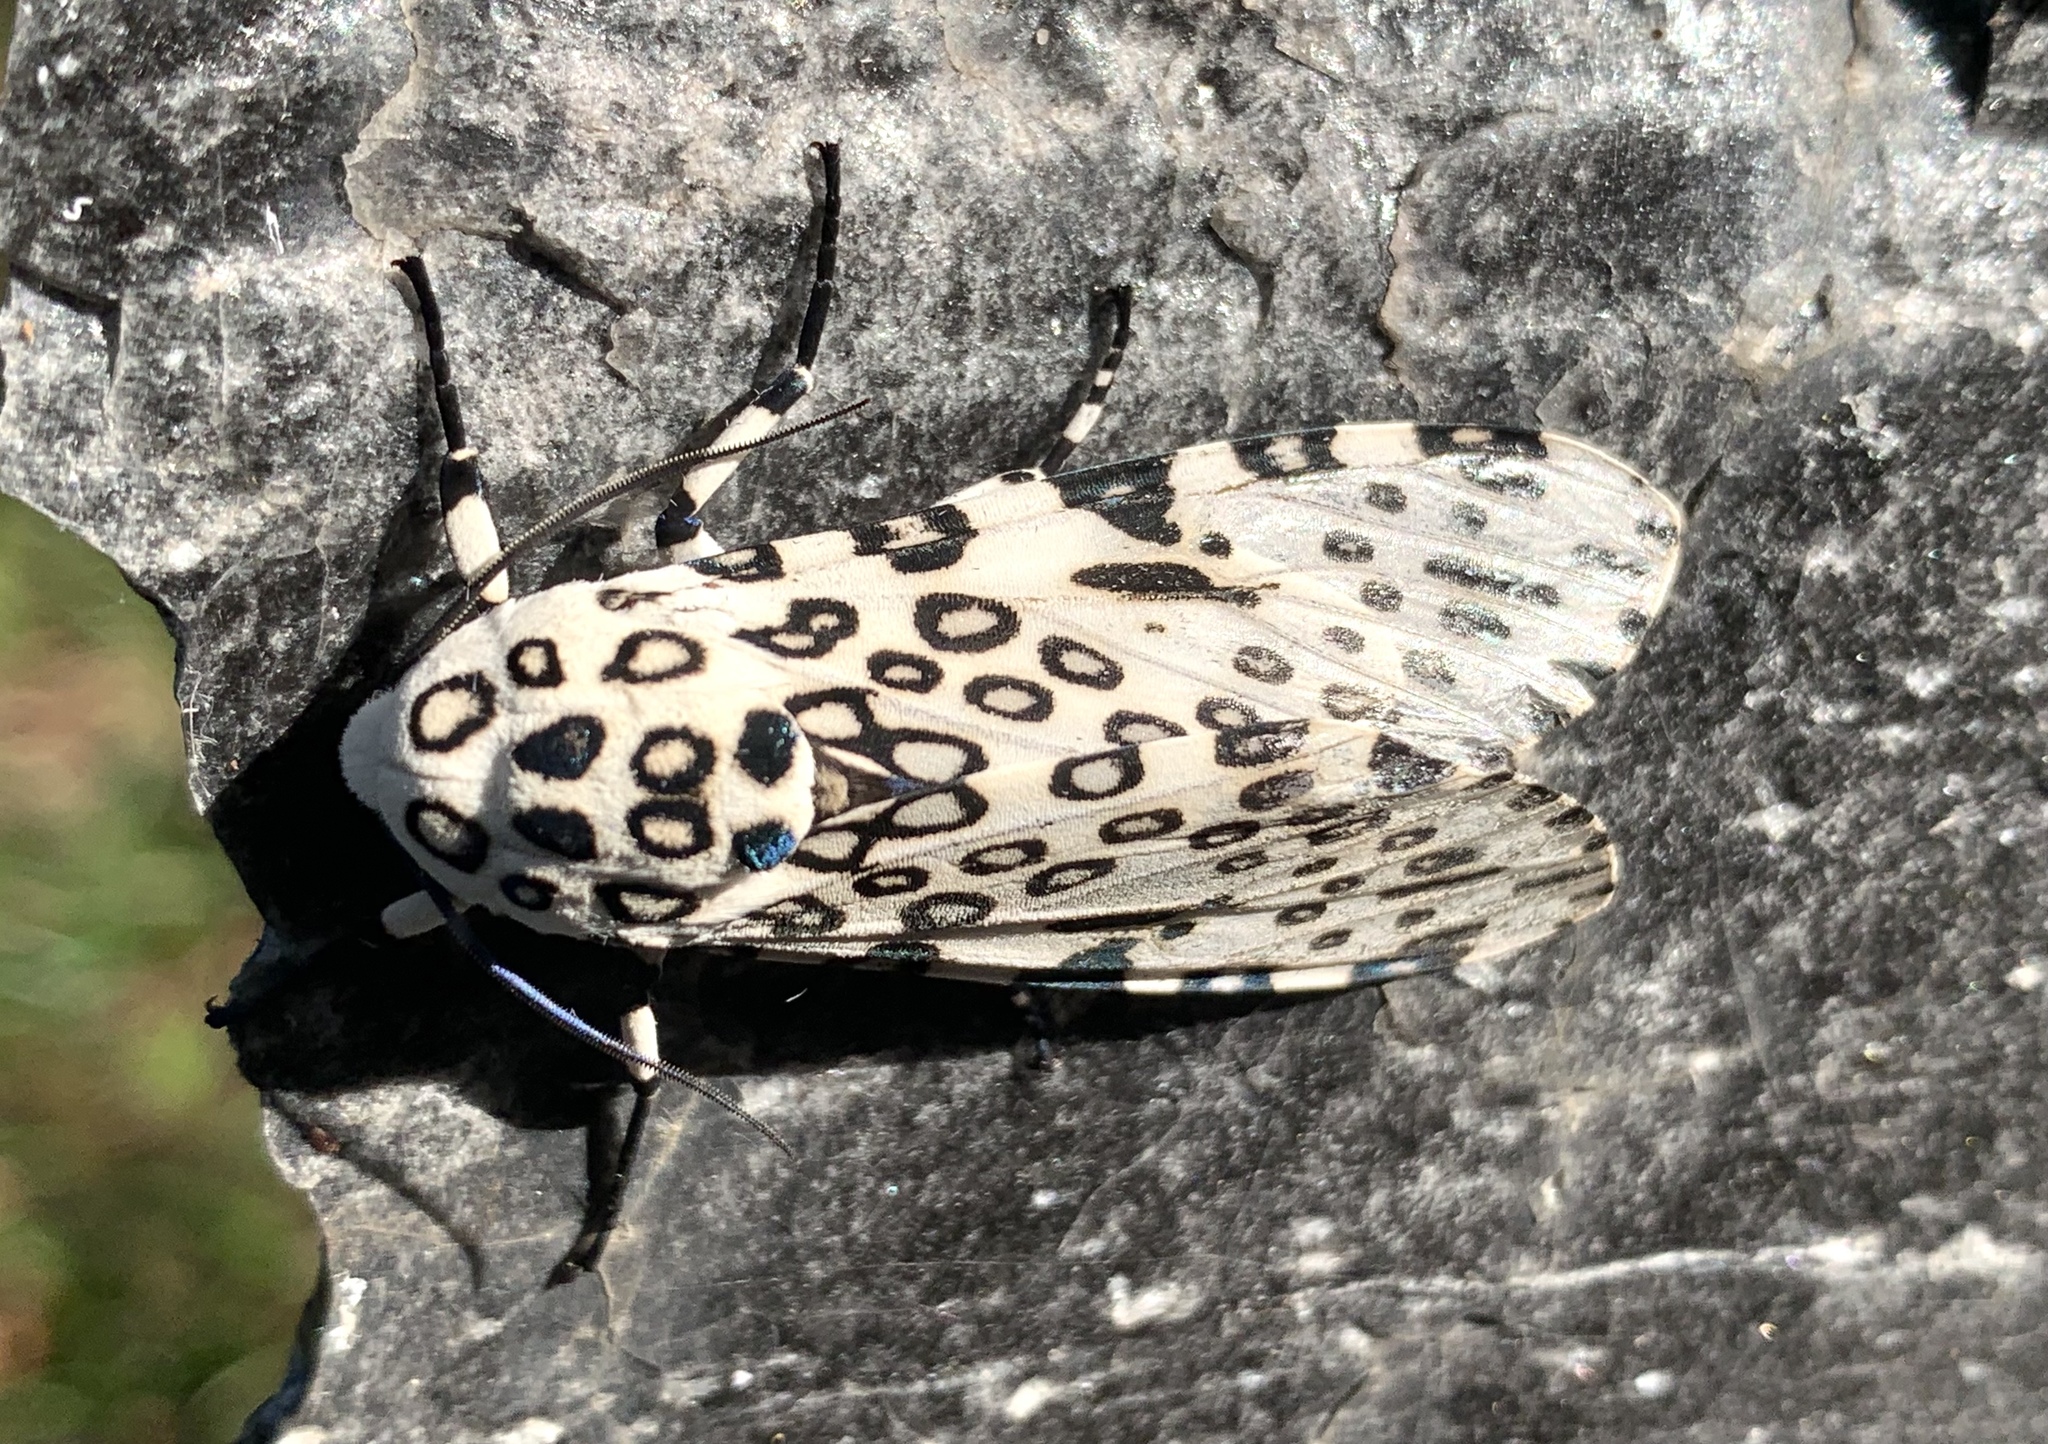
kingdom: Animalia
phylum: Arthropoda
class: Insecta
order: Lepidoptera
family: Erebidae
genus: Hypercompe
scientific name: Hypercompe scribonia
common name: Giant leopard moth
